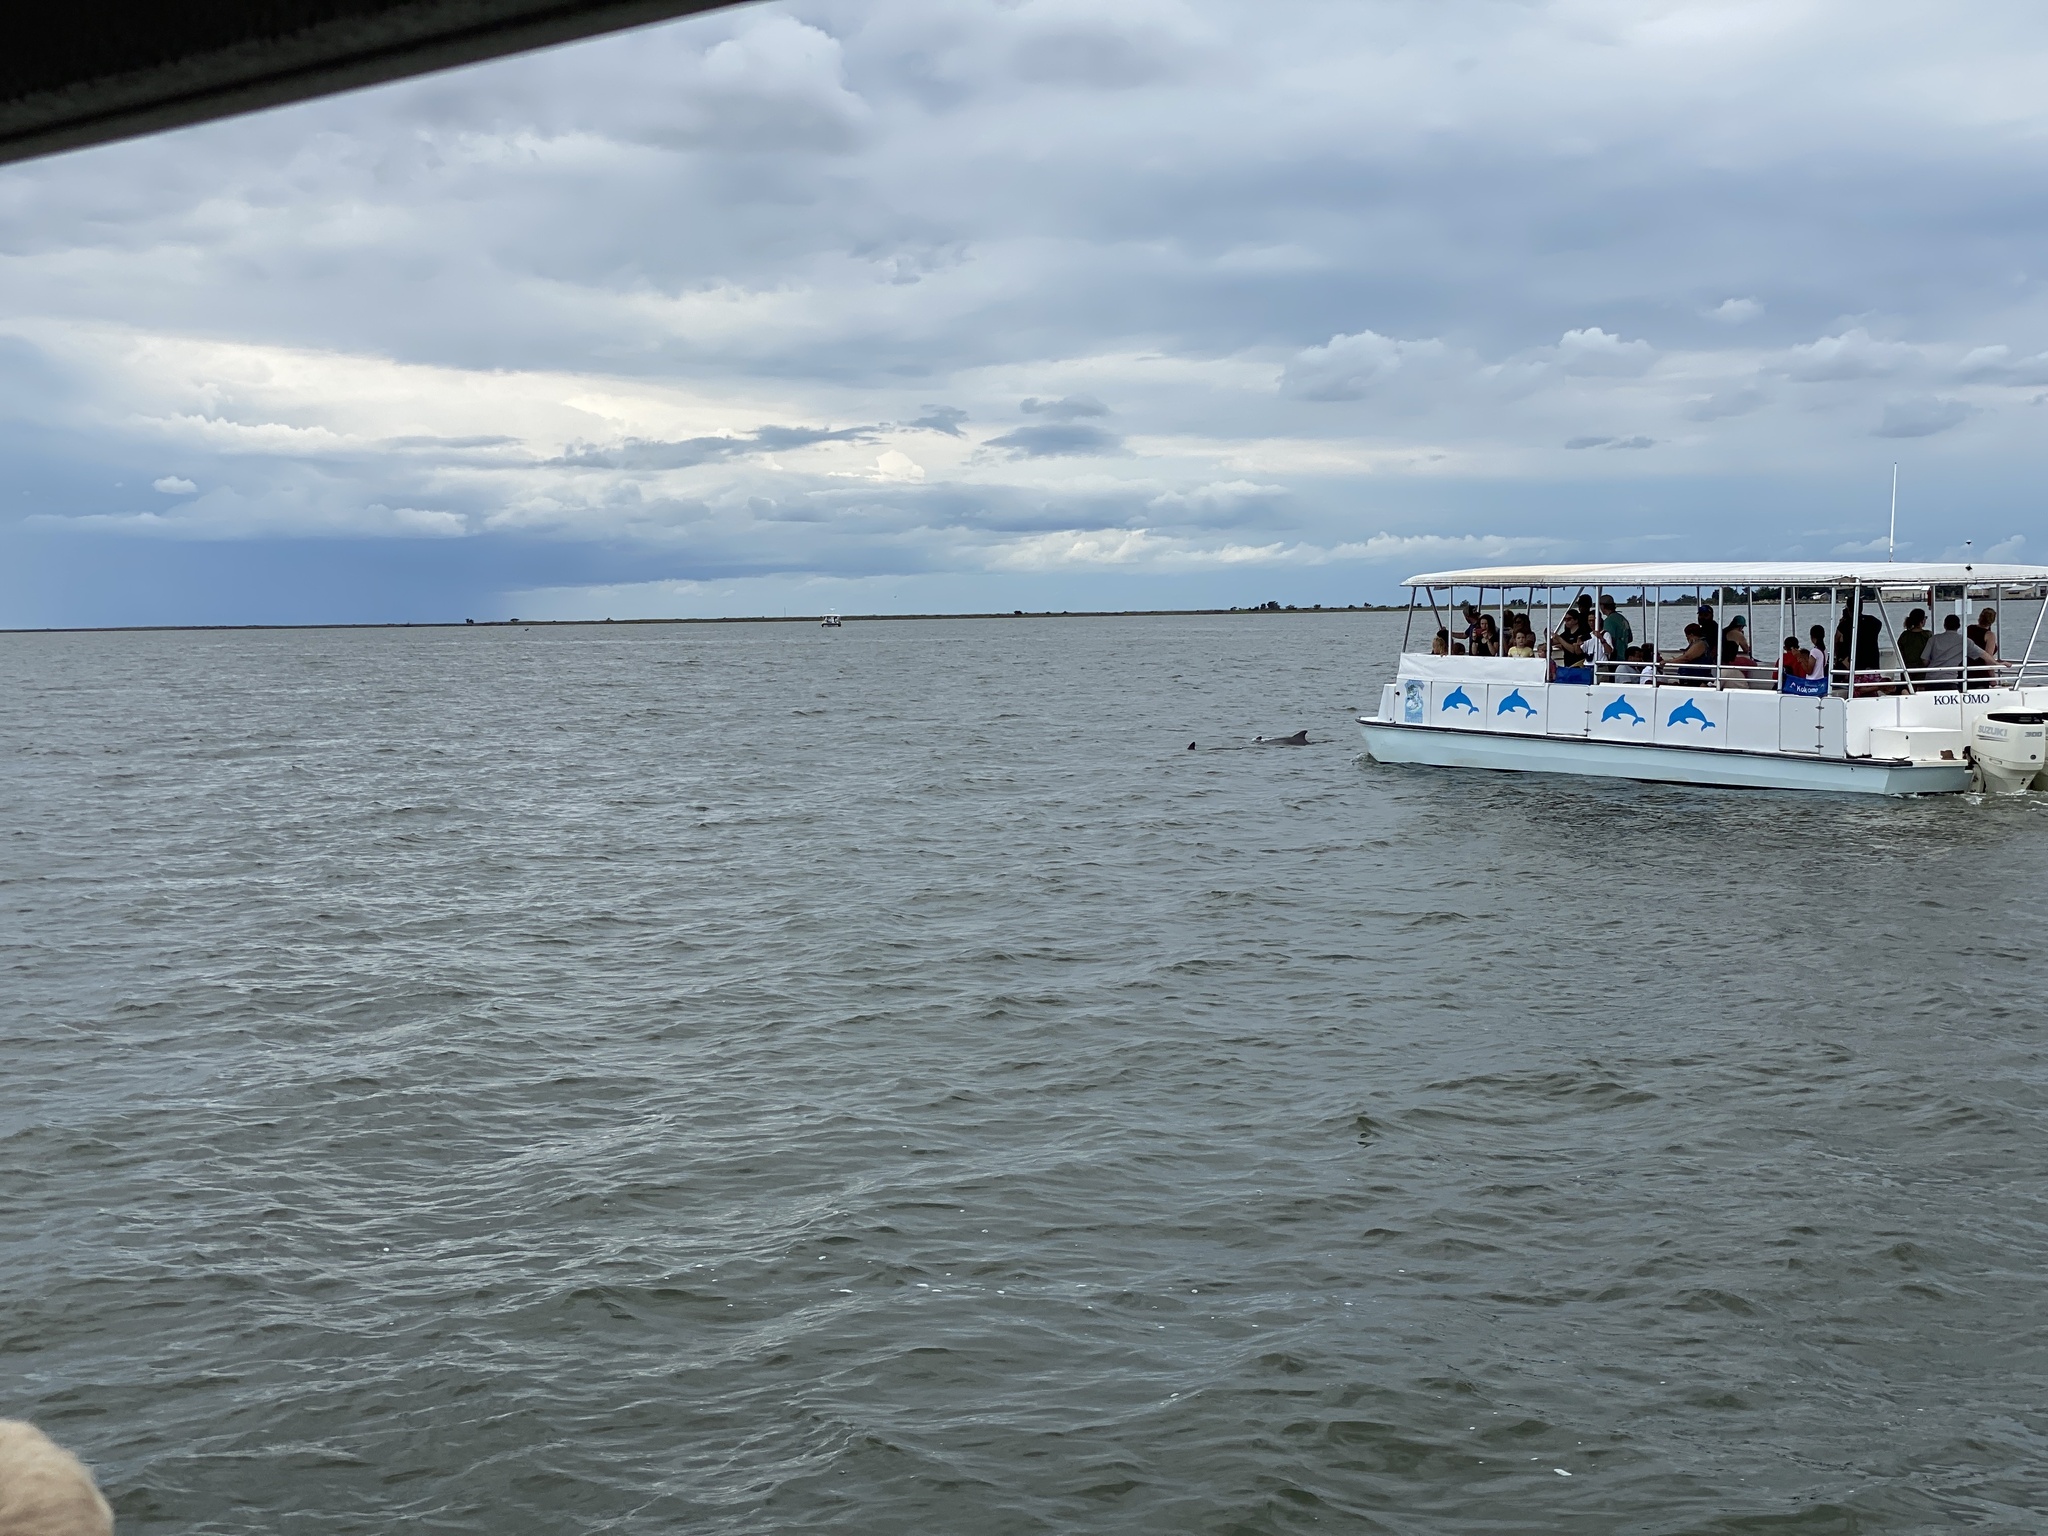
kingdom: Animalia
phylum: Chordata
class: Mammalia
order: Cetacea
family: Delphinidae
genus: Tursiops
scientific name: Tursiops truncatus
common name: Bottlenose dolphin
